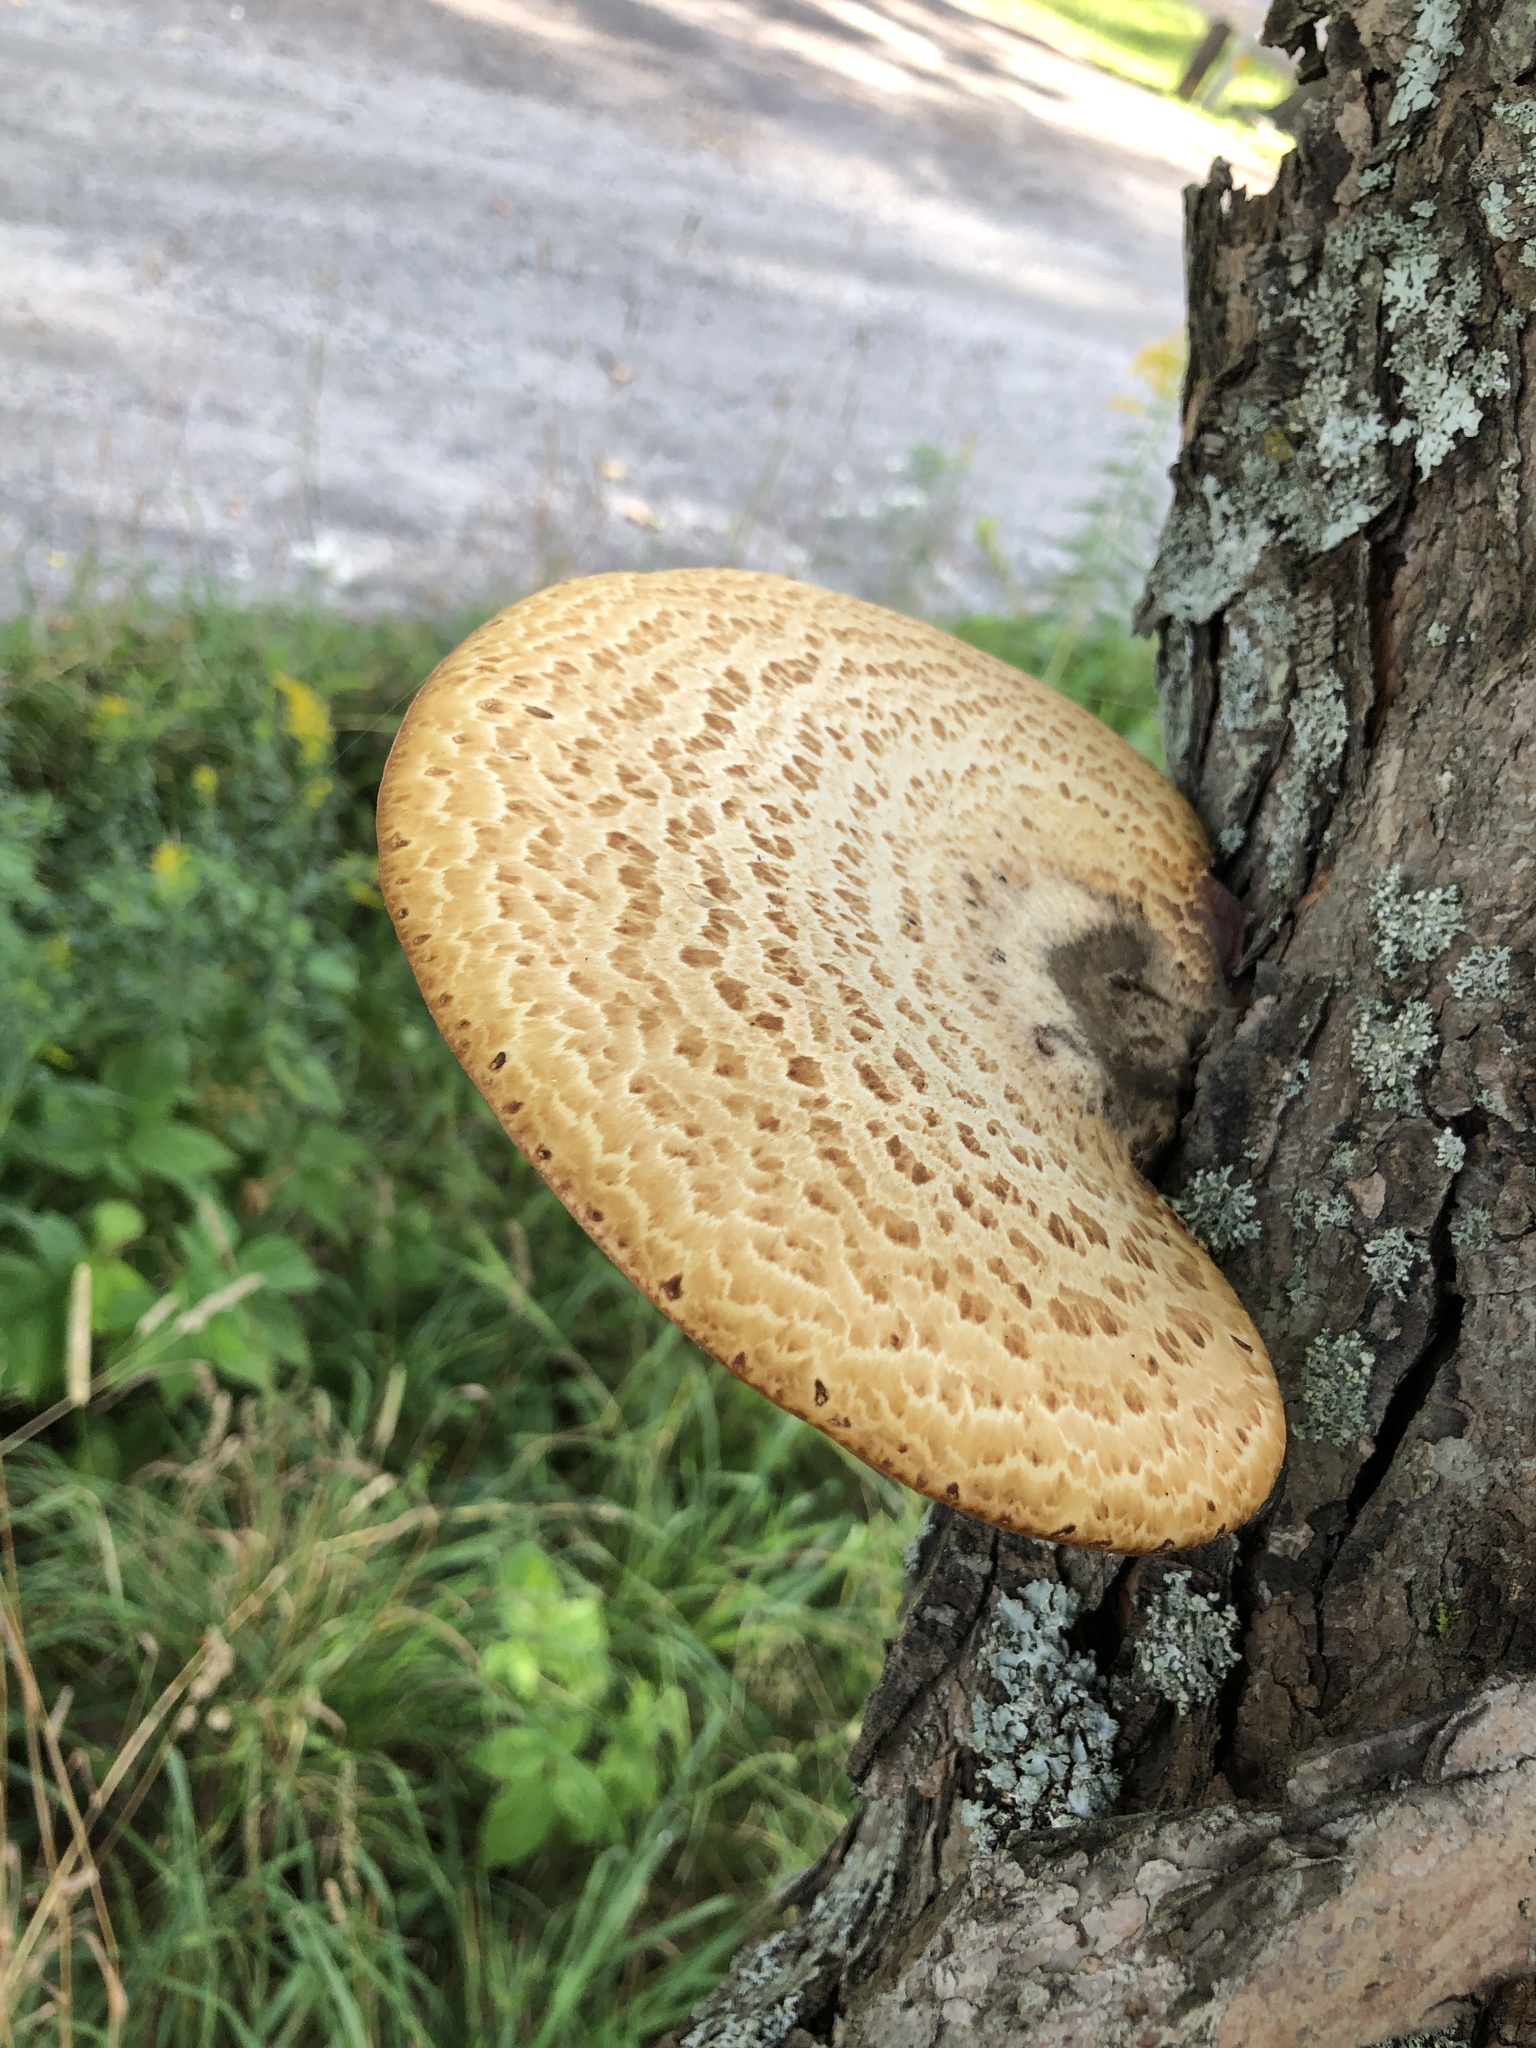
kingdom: Fungi
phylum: Basidiomycota
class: Agaricomycetes
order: Polyporales
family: Polyporaceae
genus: Cerioporus
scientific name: Cerioporus squamosus
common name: Dryad's saddle
